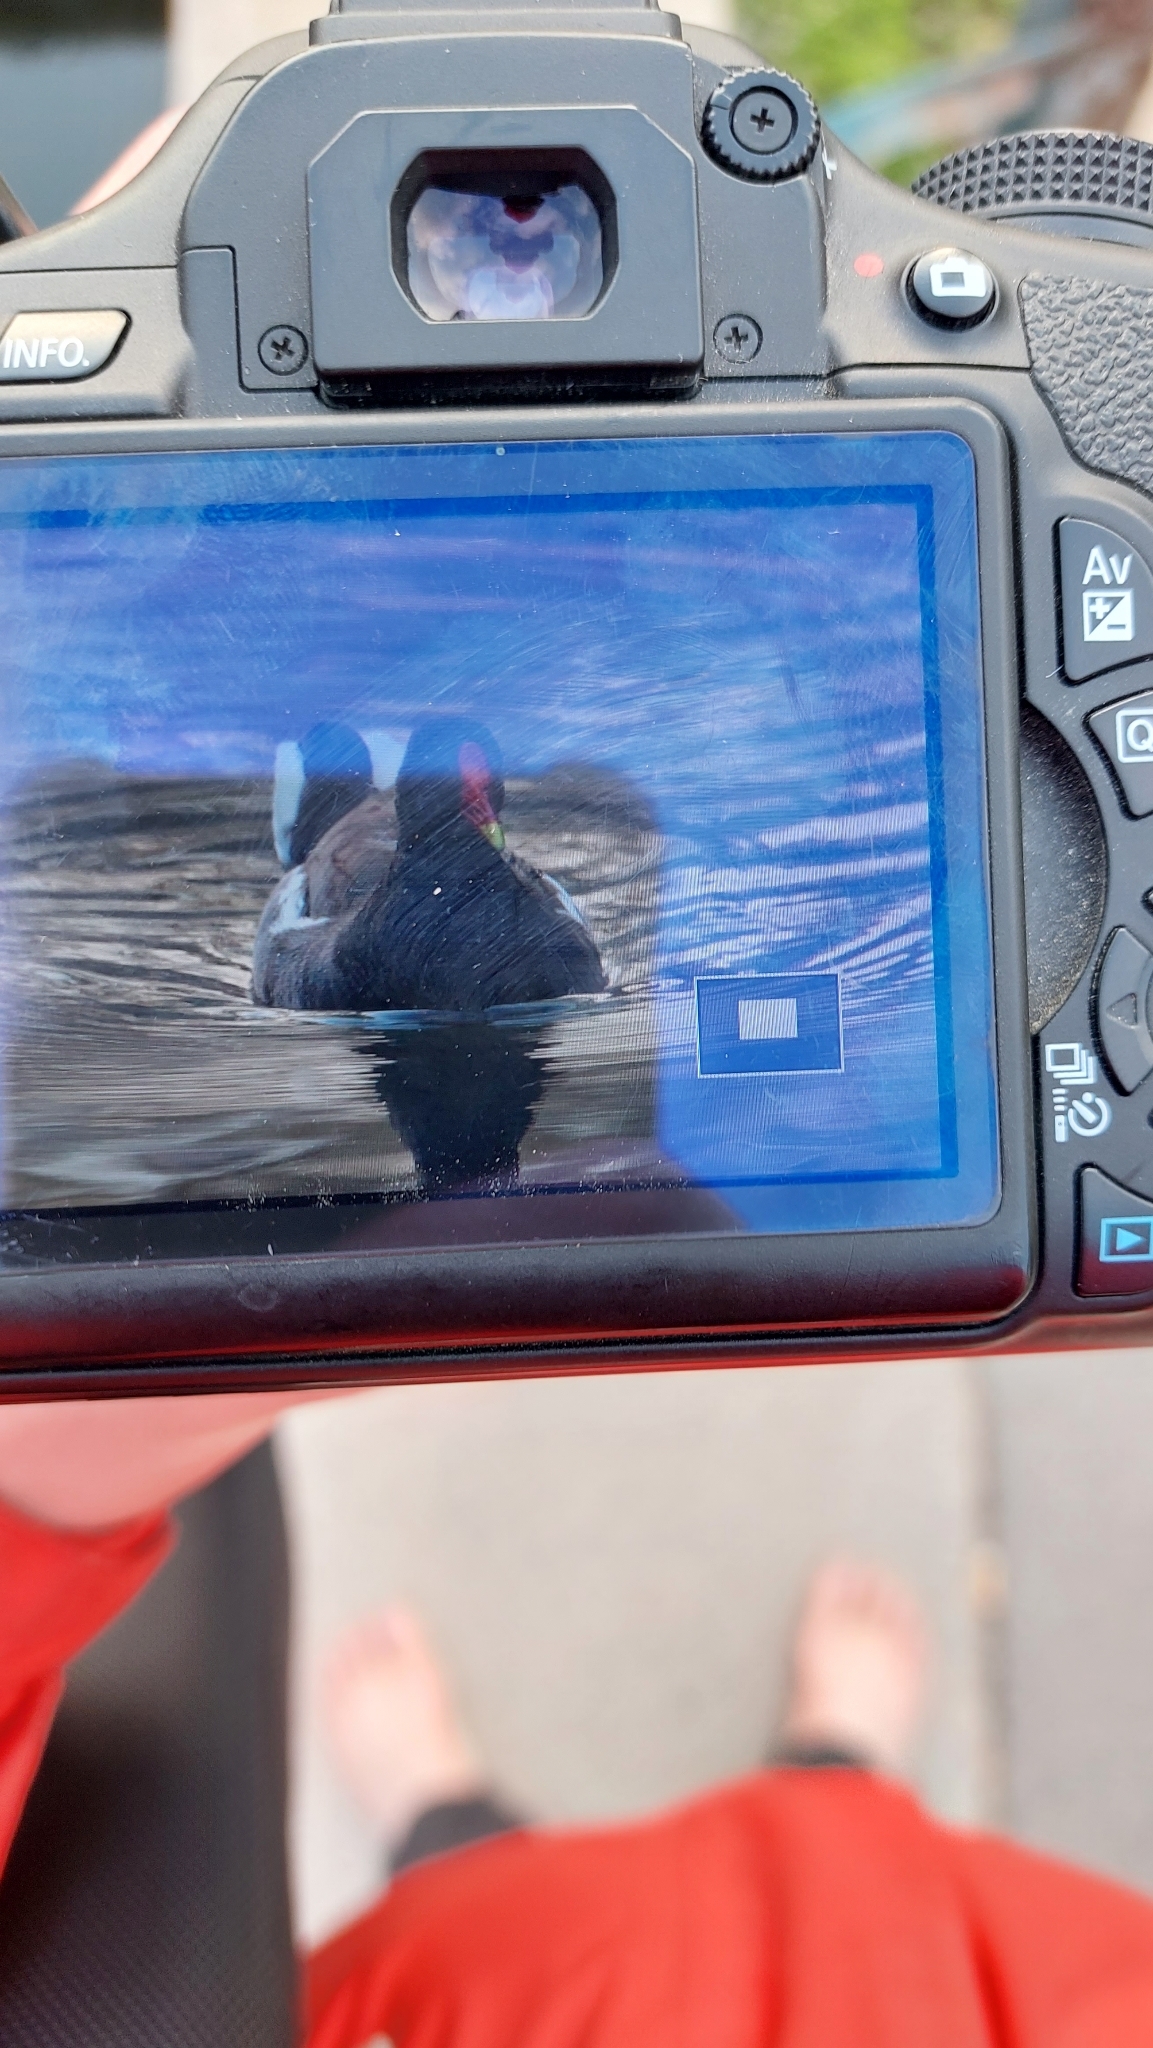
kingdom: Animalia
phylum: Chordata
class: Aves
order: Gruiformes
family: Rallidae
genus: Gallinula
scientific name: Gallinula chloropus
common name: Common moorhen
